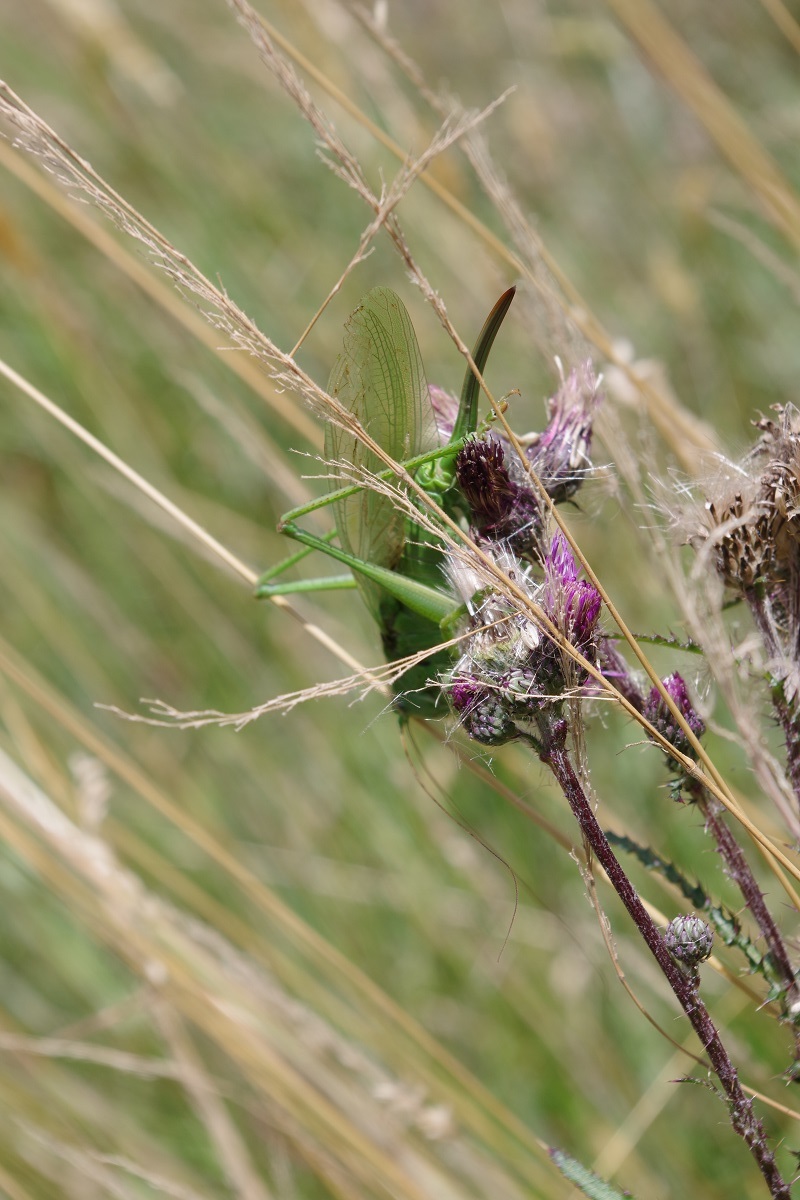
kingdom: Animalia
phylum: Arthropoda
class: Insecta
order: Orthoptera
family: Tettigoniidae
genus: Tettigonia
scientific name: Tettigonia viridissima
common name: Great green bush-cricket
